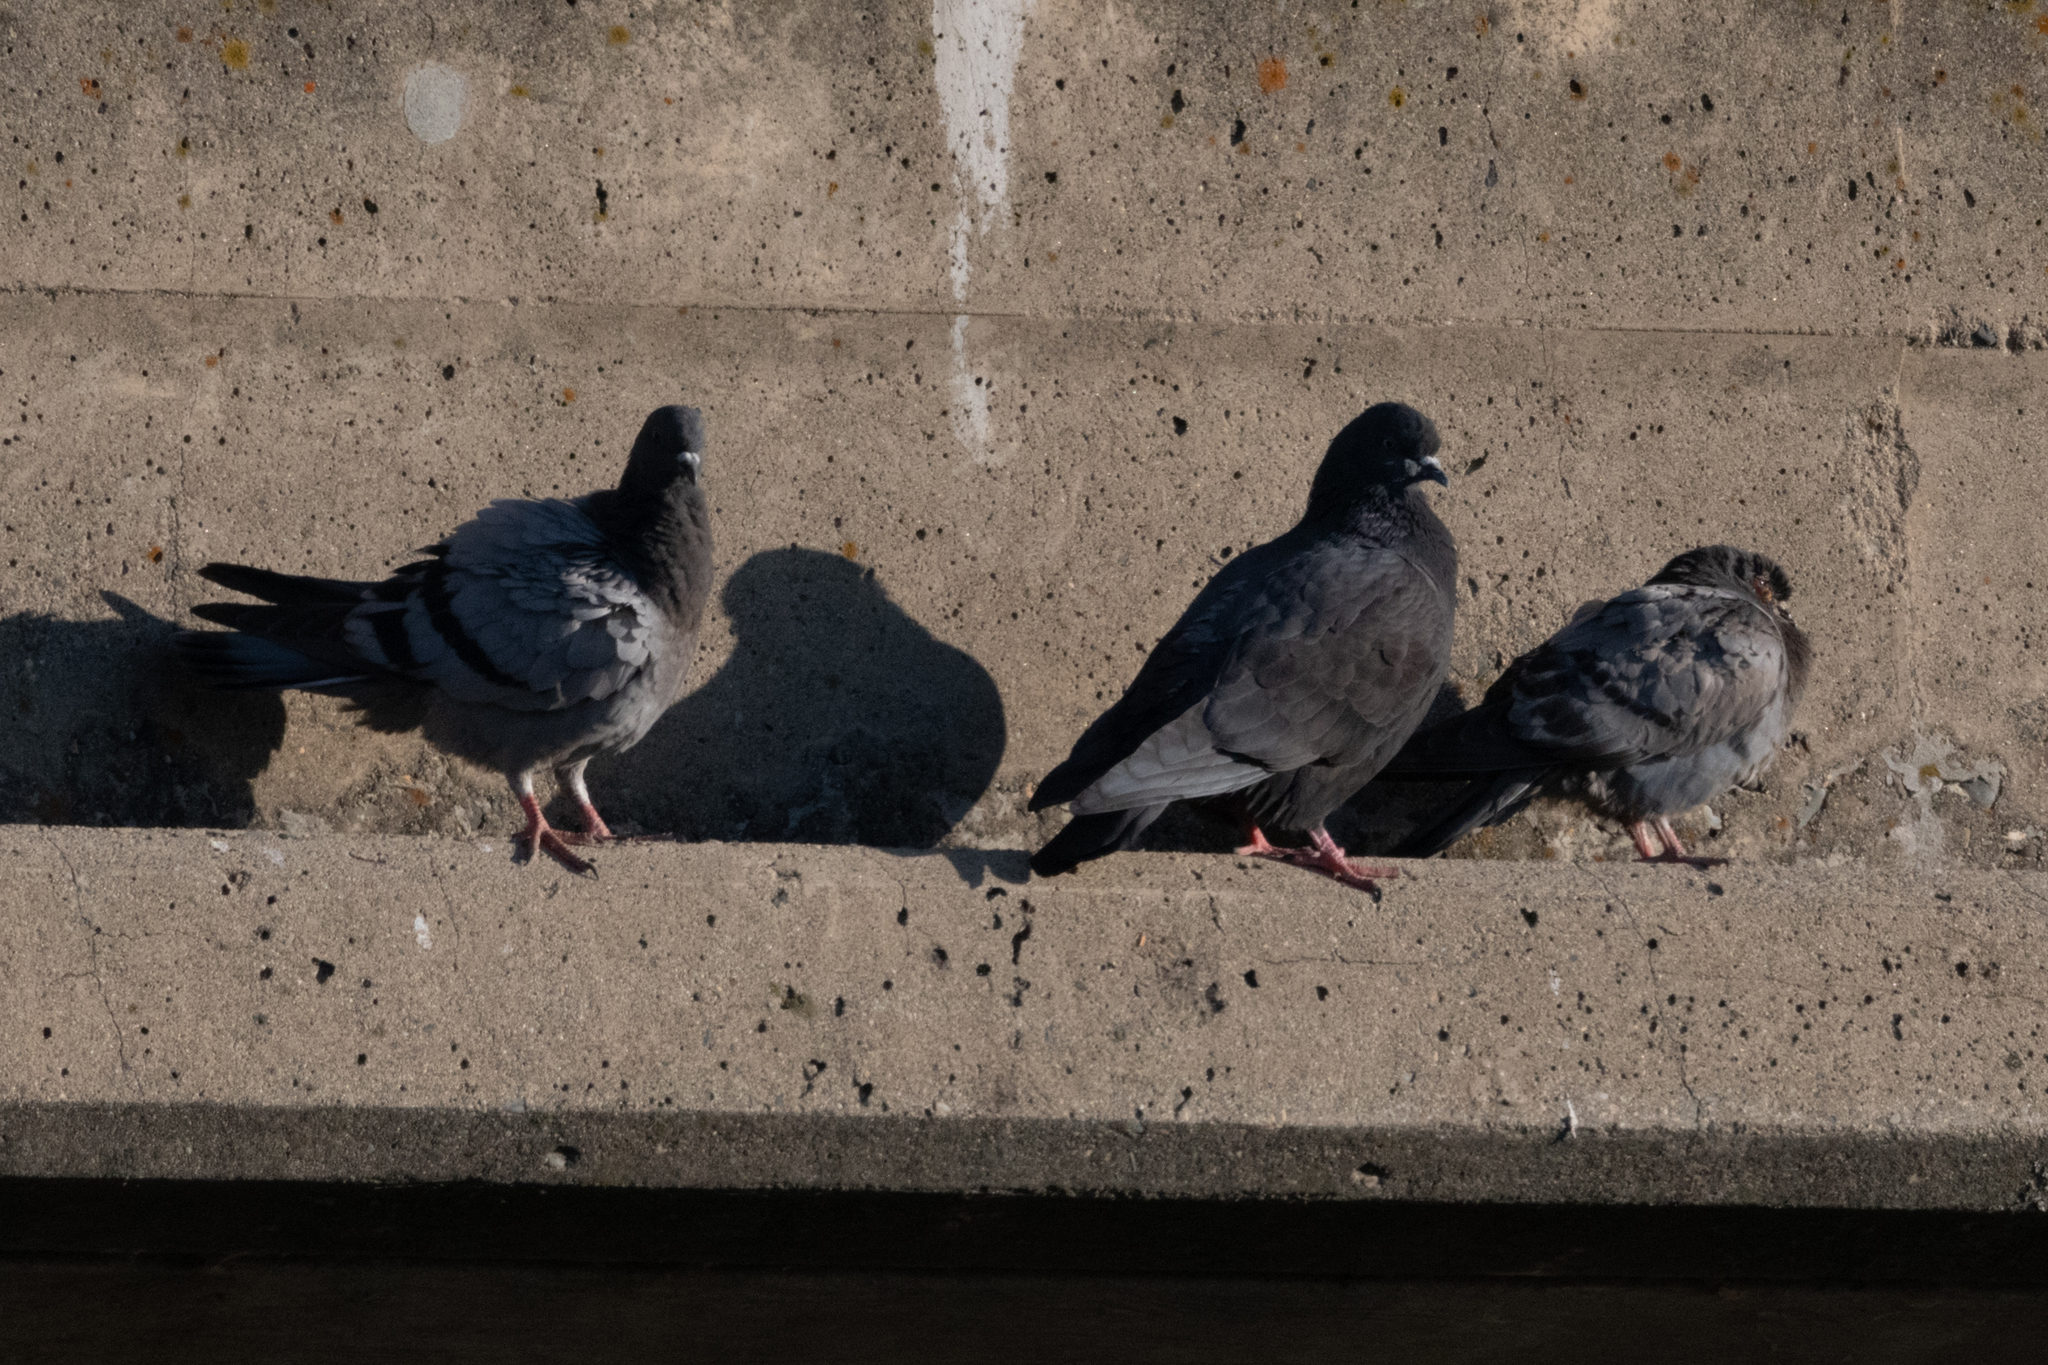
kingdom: Animalia
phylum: Chordata
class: Aves
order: Columbiformes
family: Columbidae
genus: Columba
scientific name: Columba livia
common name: Rock pigeon
